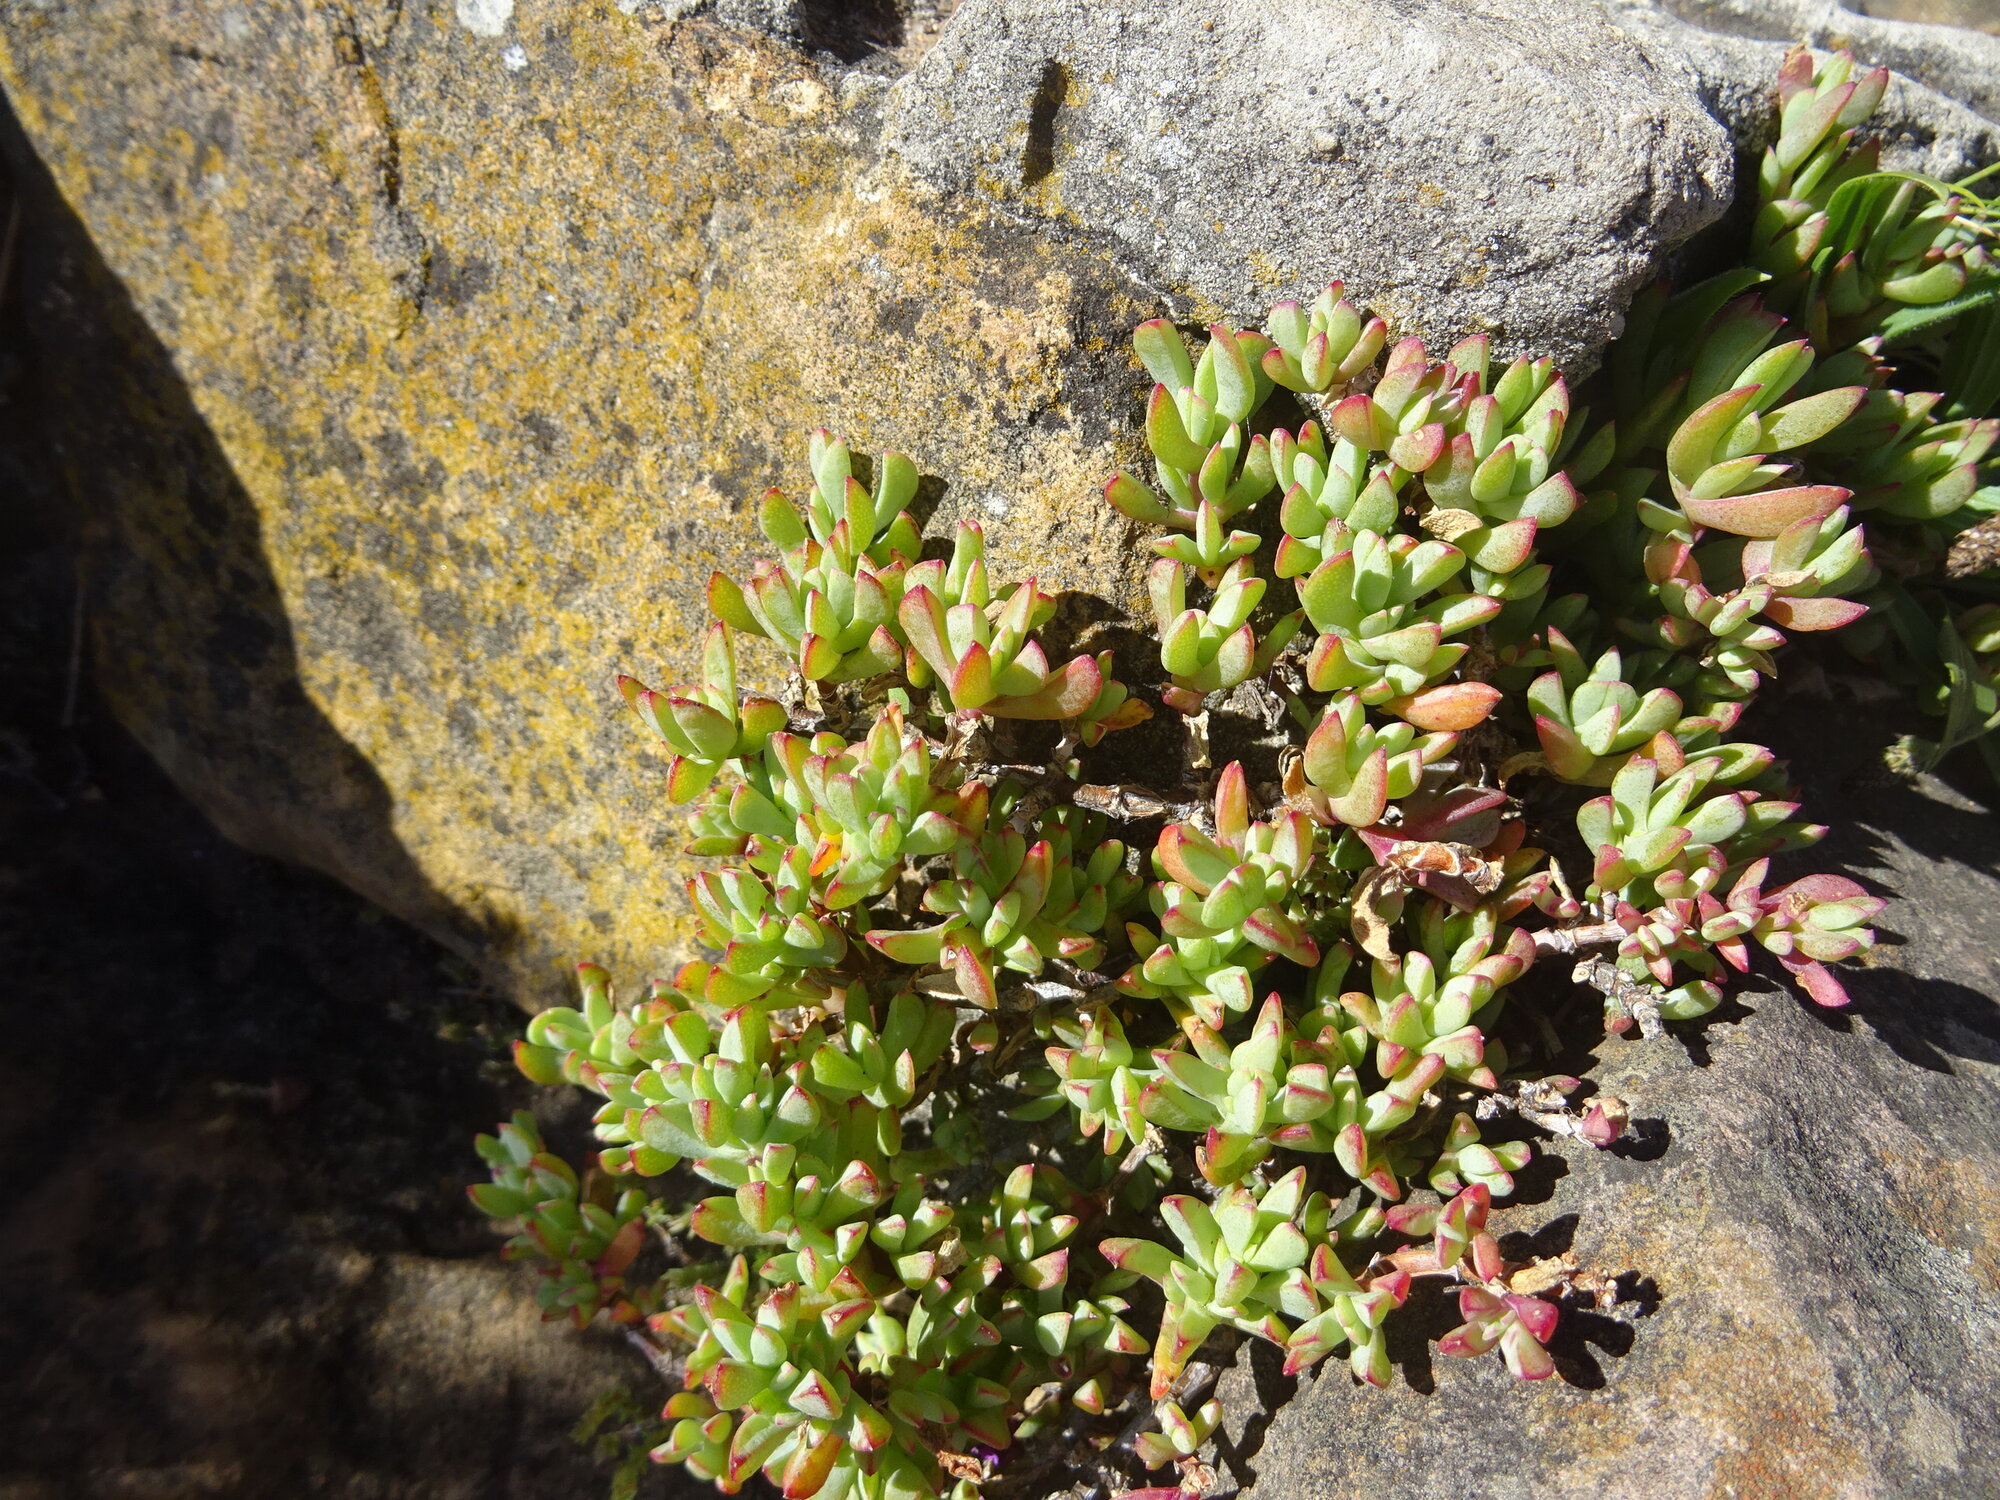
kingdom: Plantae
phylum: Tracheophyta
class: Magnoliopsida
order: Caryophyllales
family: Aizoaceae
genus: Oscularia
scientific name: Oscularia falciformis
